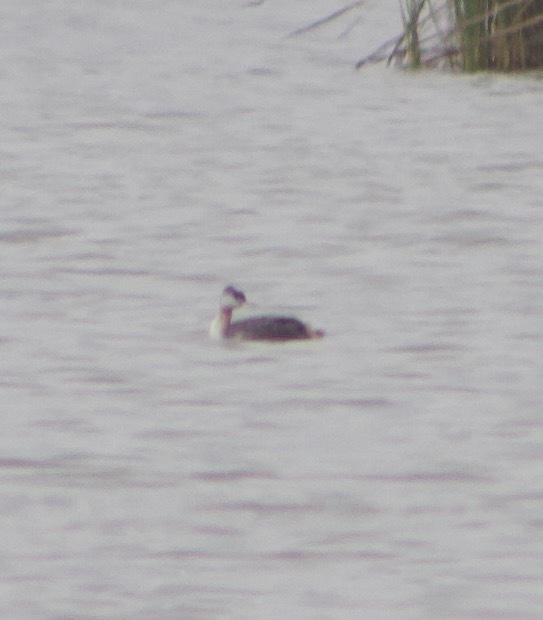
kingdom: Animalia
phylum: Chordata
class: Aves
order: Podicipediformes
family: Podicipedidae
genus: Podiceps
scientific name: Podiceps major
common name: Great grebe
